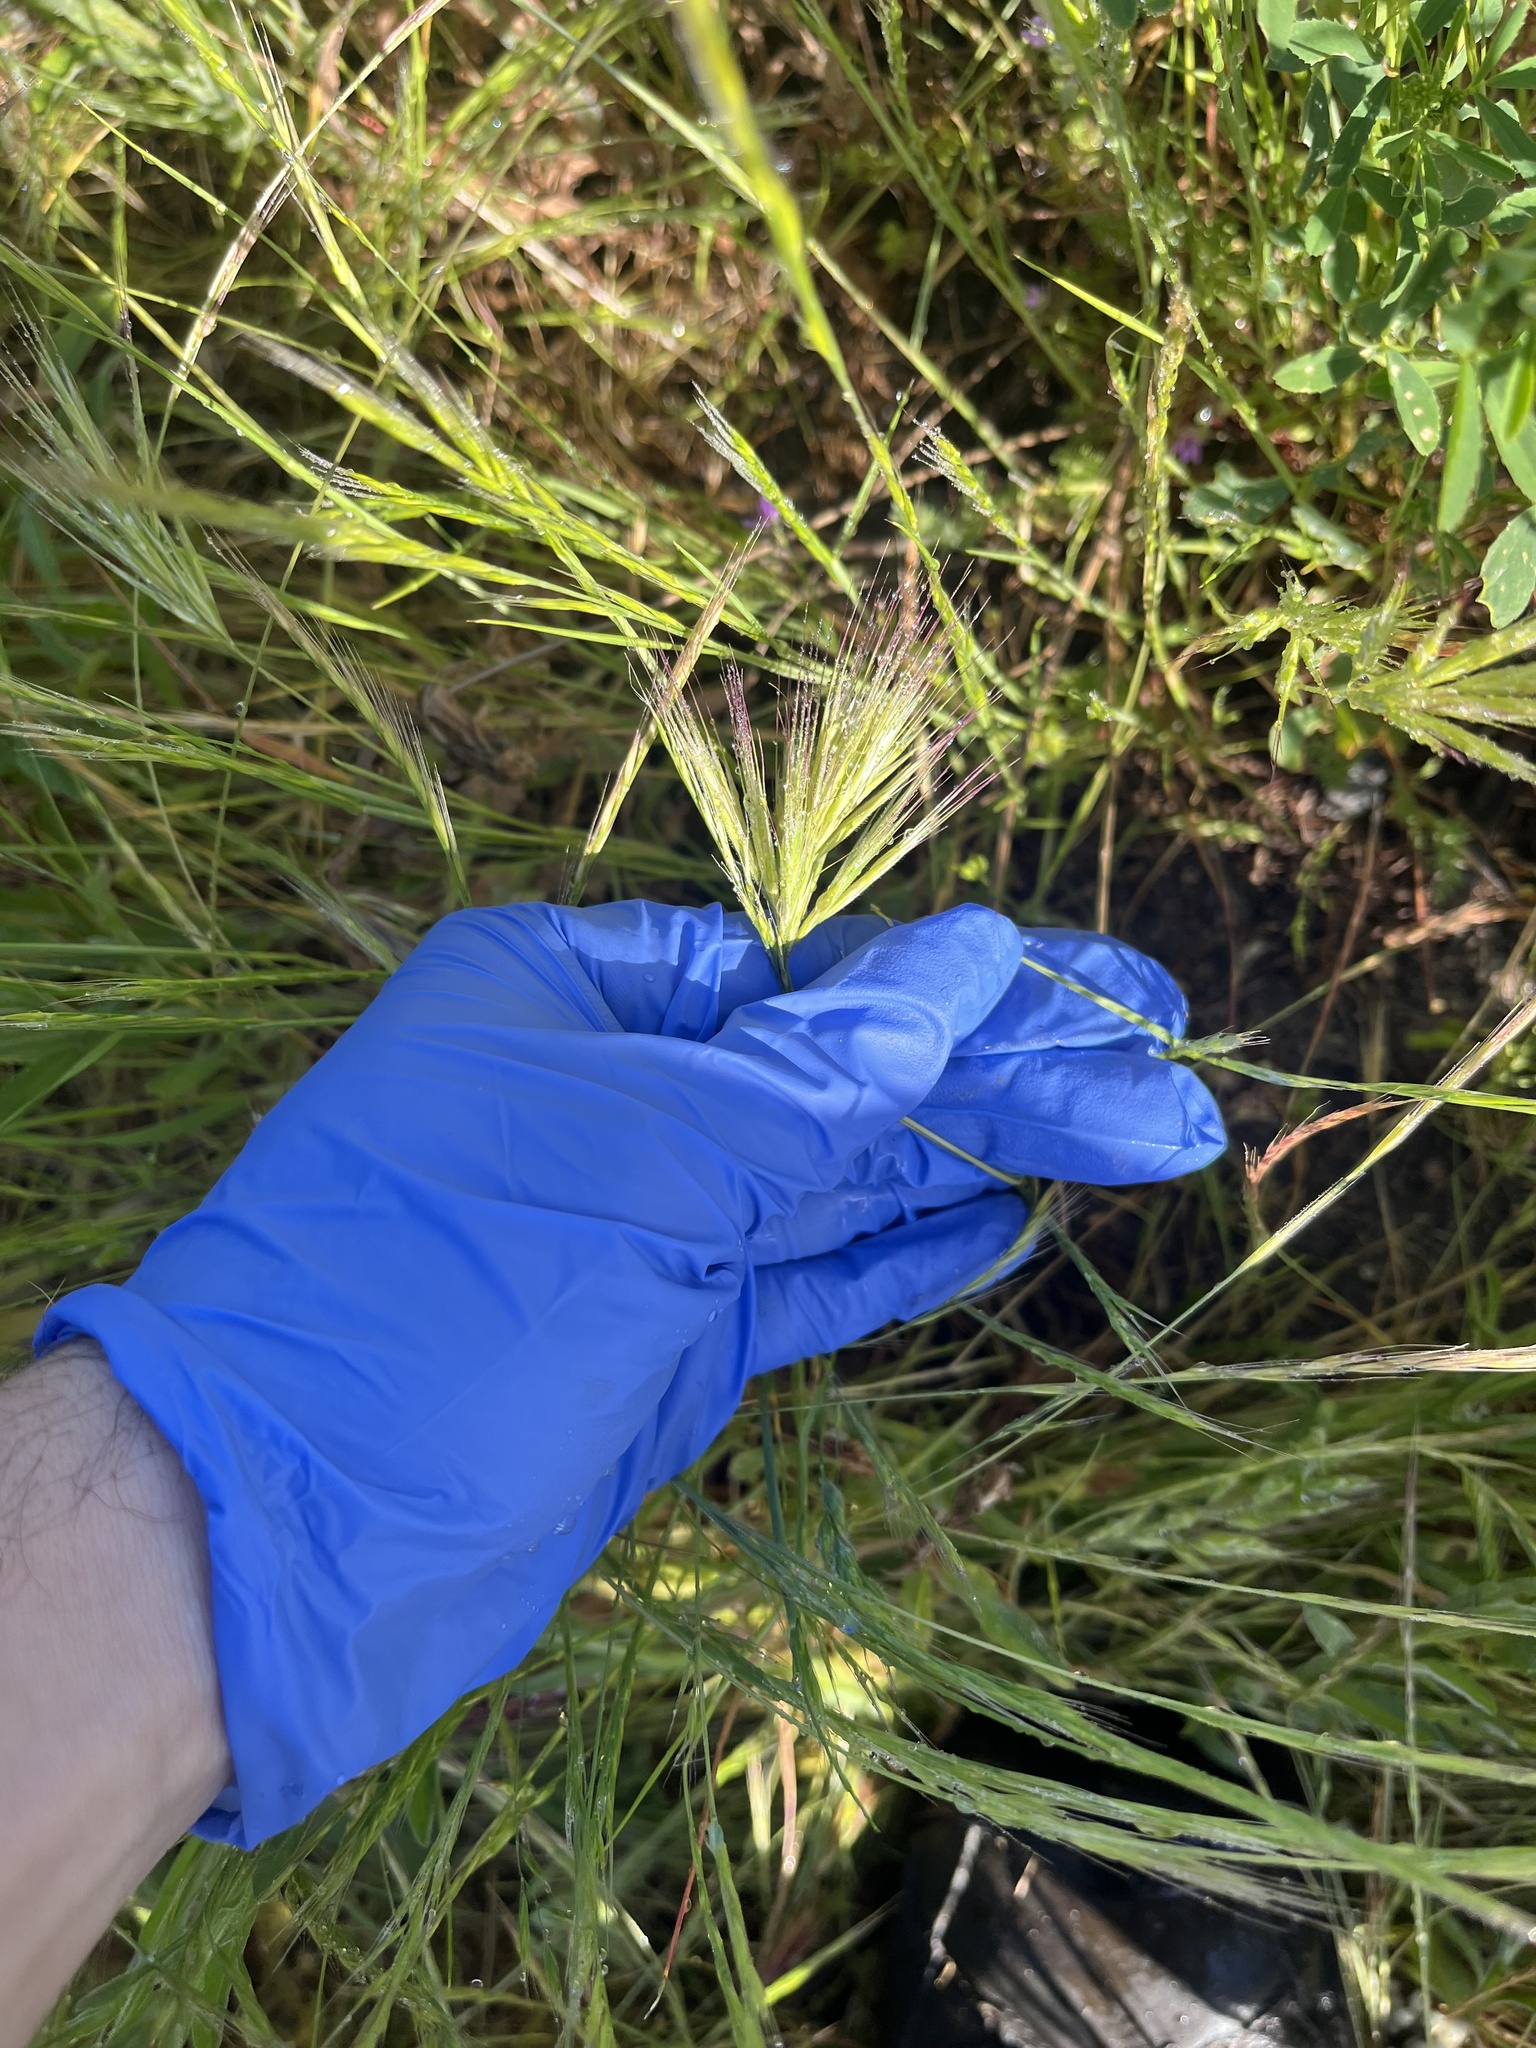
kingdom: Plantae
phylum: Tracheophyta
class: Liliopsida
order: Poales
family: Poaceae
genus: Bromus
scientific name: Bromus rubens
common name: Red brome
